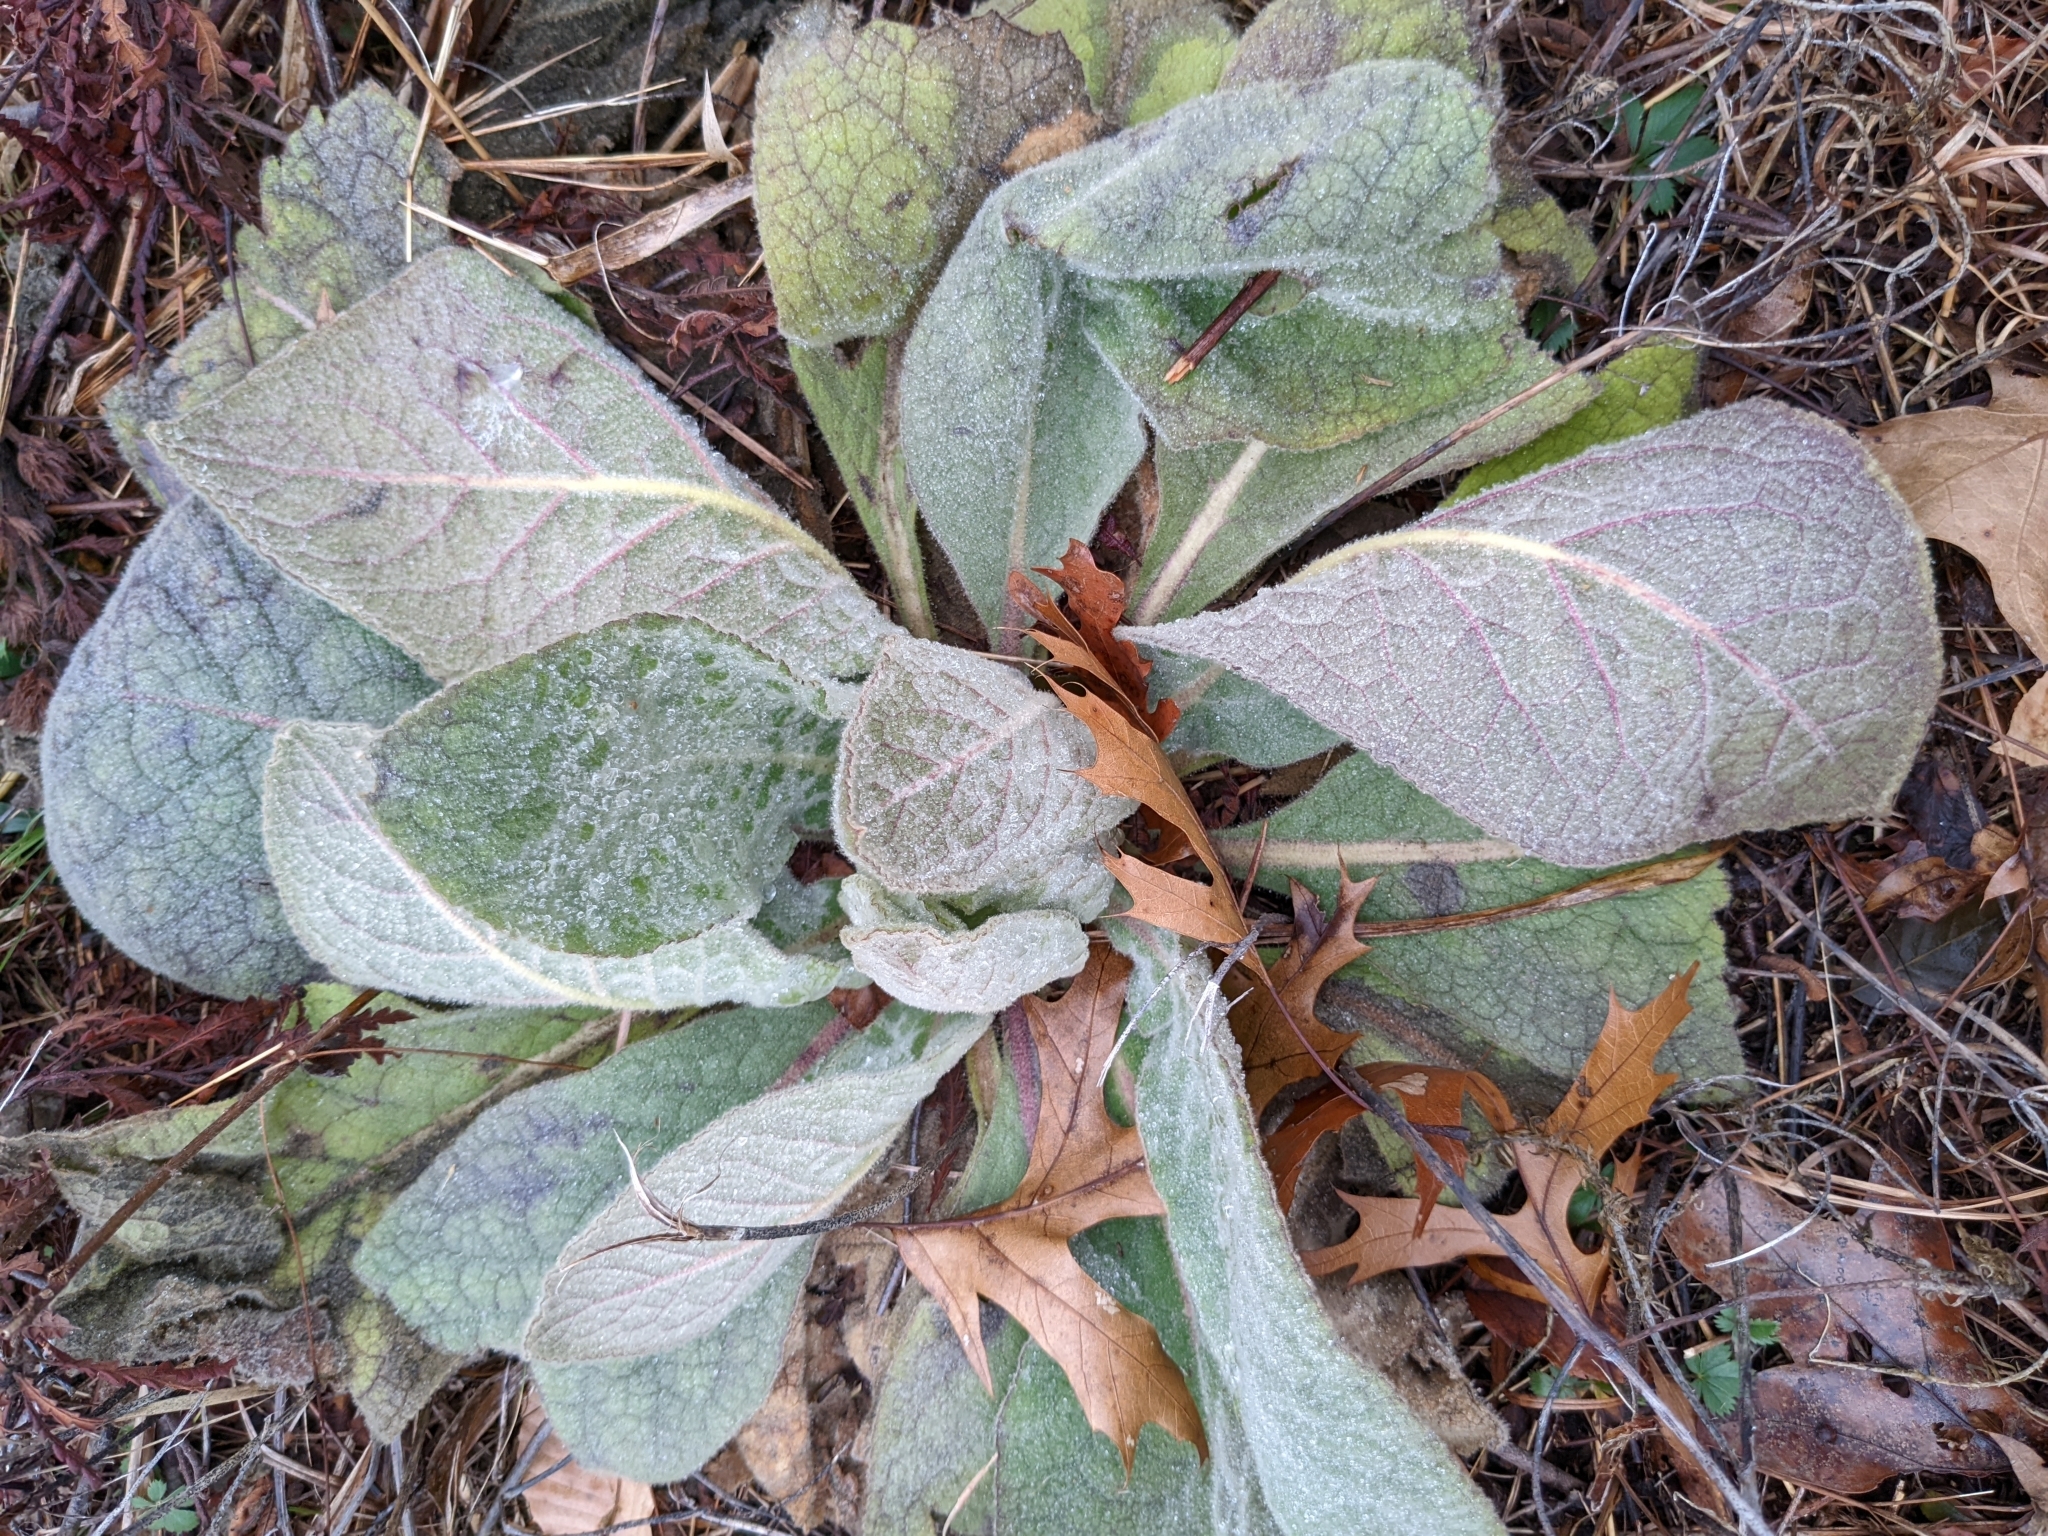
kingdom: Plantae
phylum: Tracheophyta
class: Magnoliopsida
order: Lamiales
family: Scrophulariaceae
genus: Verbascum
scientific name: Verbascum thapsus
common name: Common mullein
